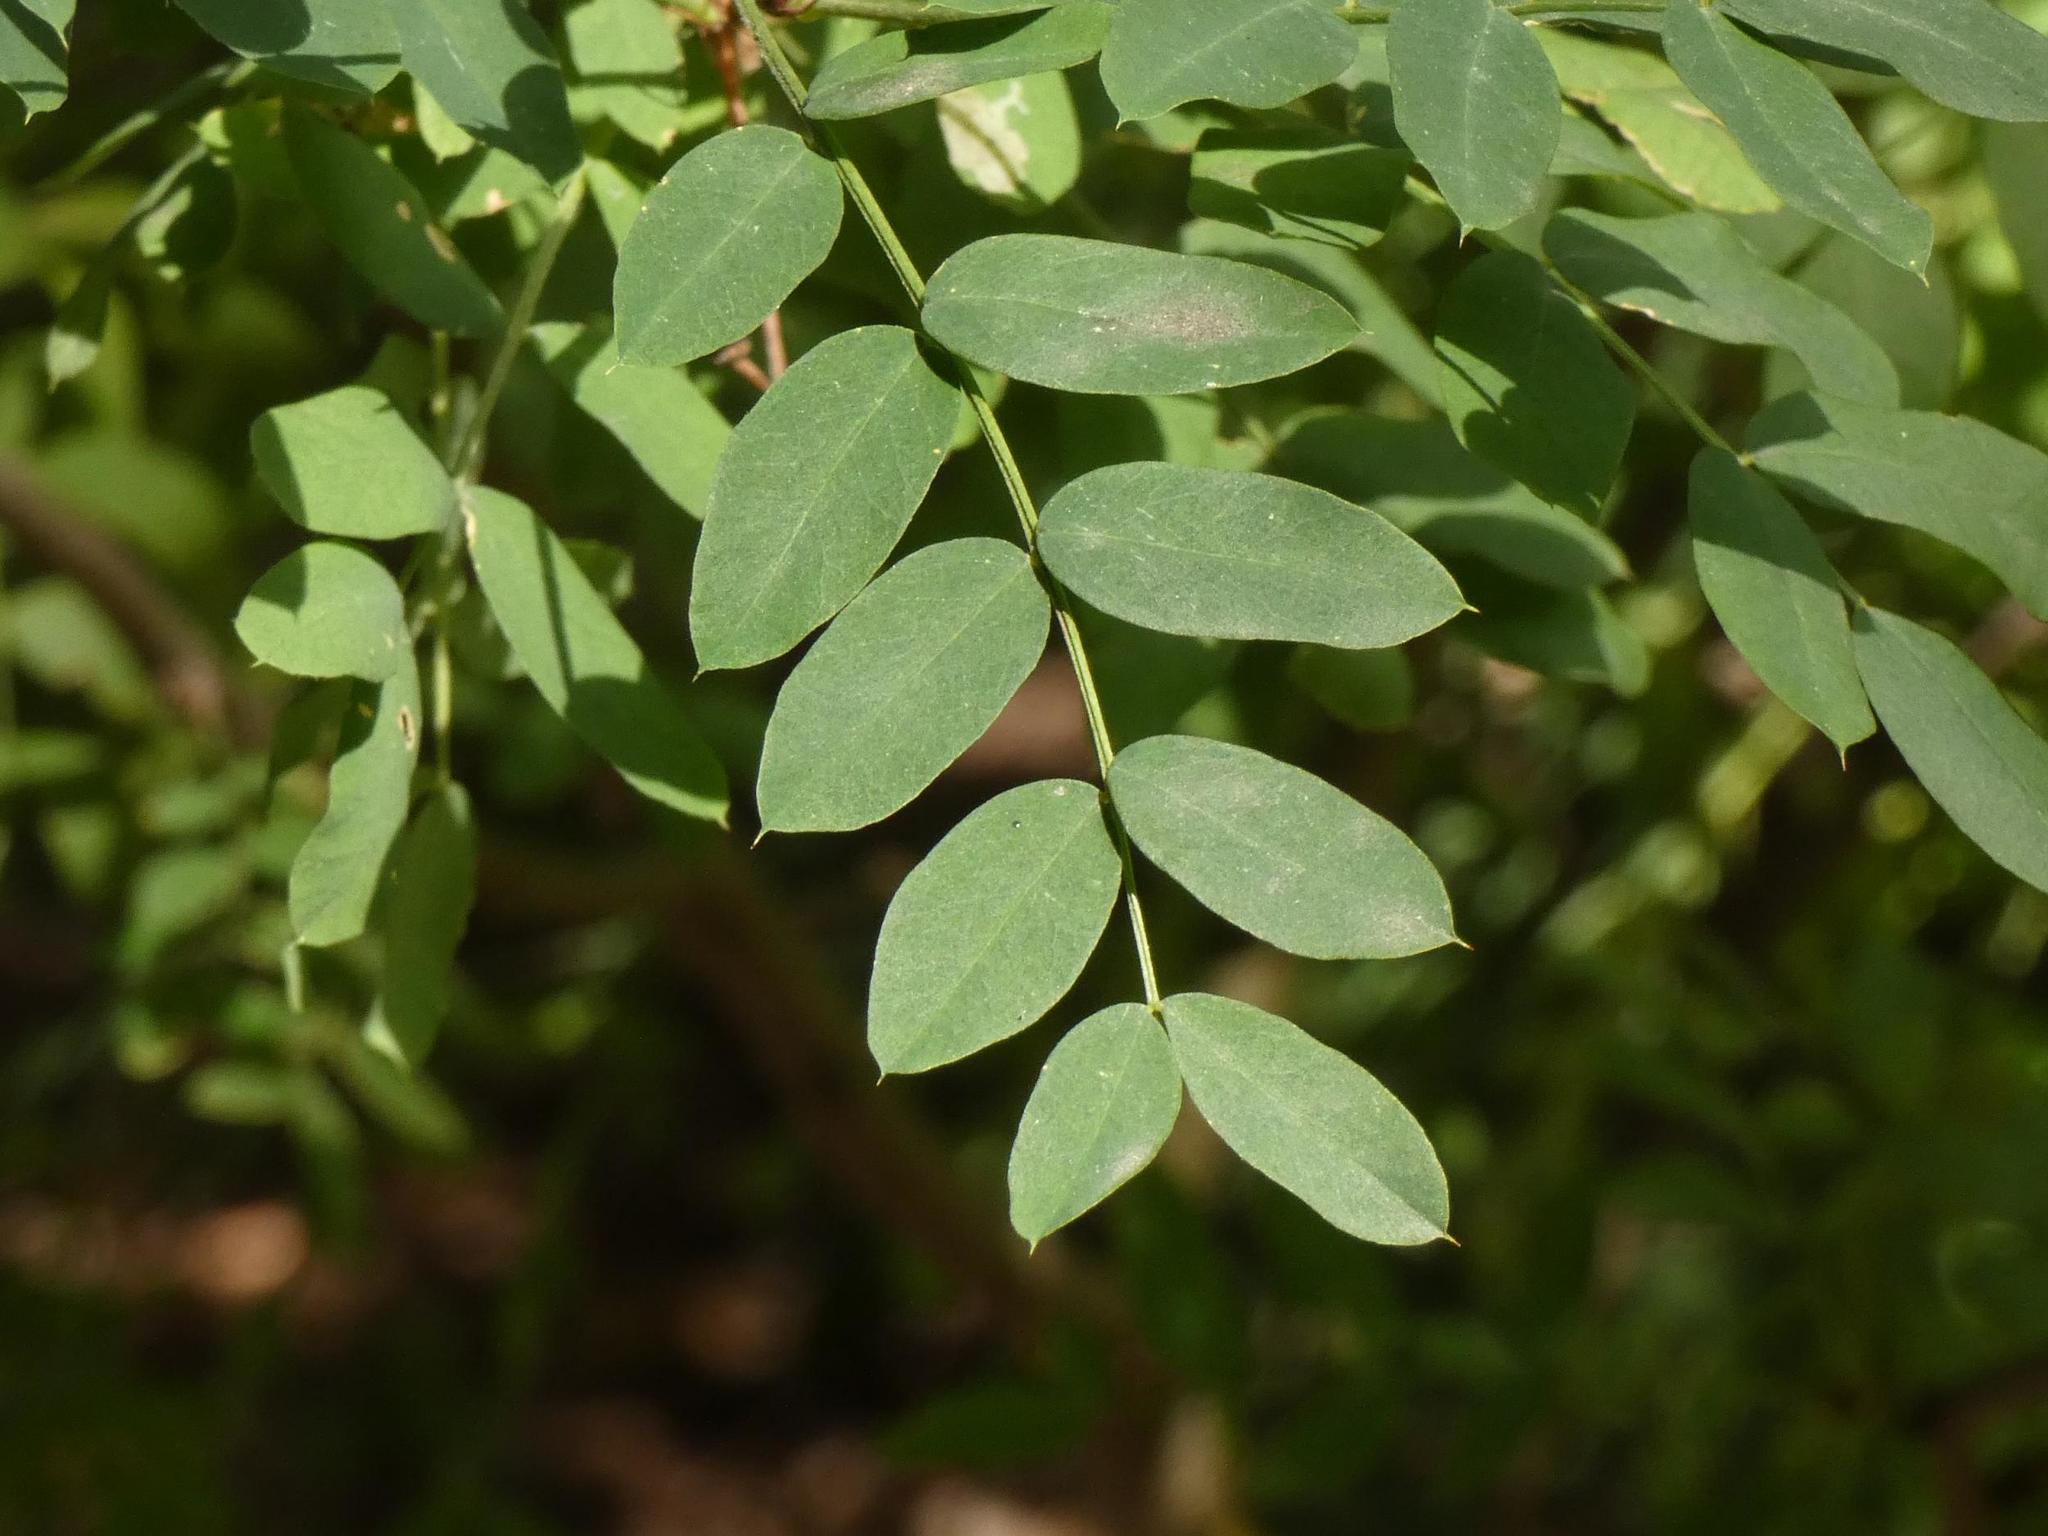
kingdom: Plantae
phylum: Tracheophyta
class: Magnoliopsida
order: Fabales
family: Fabaceae
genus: Caragana
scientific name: Caragana arborescens
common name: Siberian peashrub
